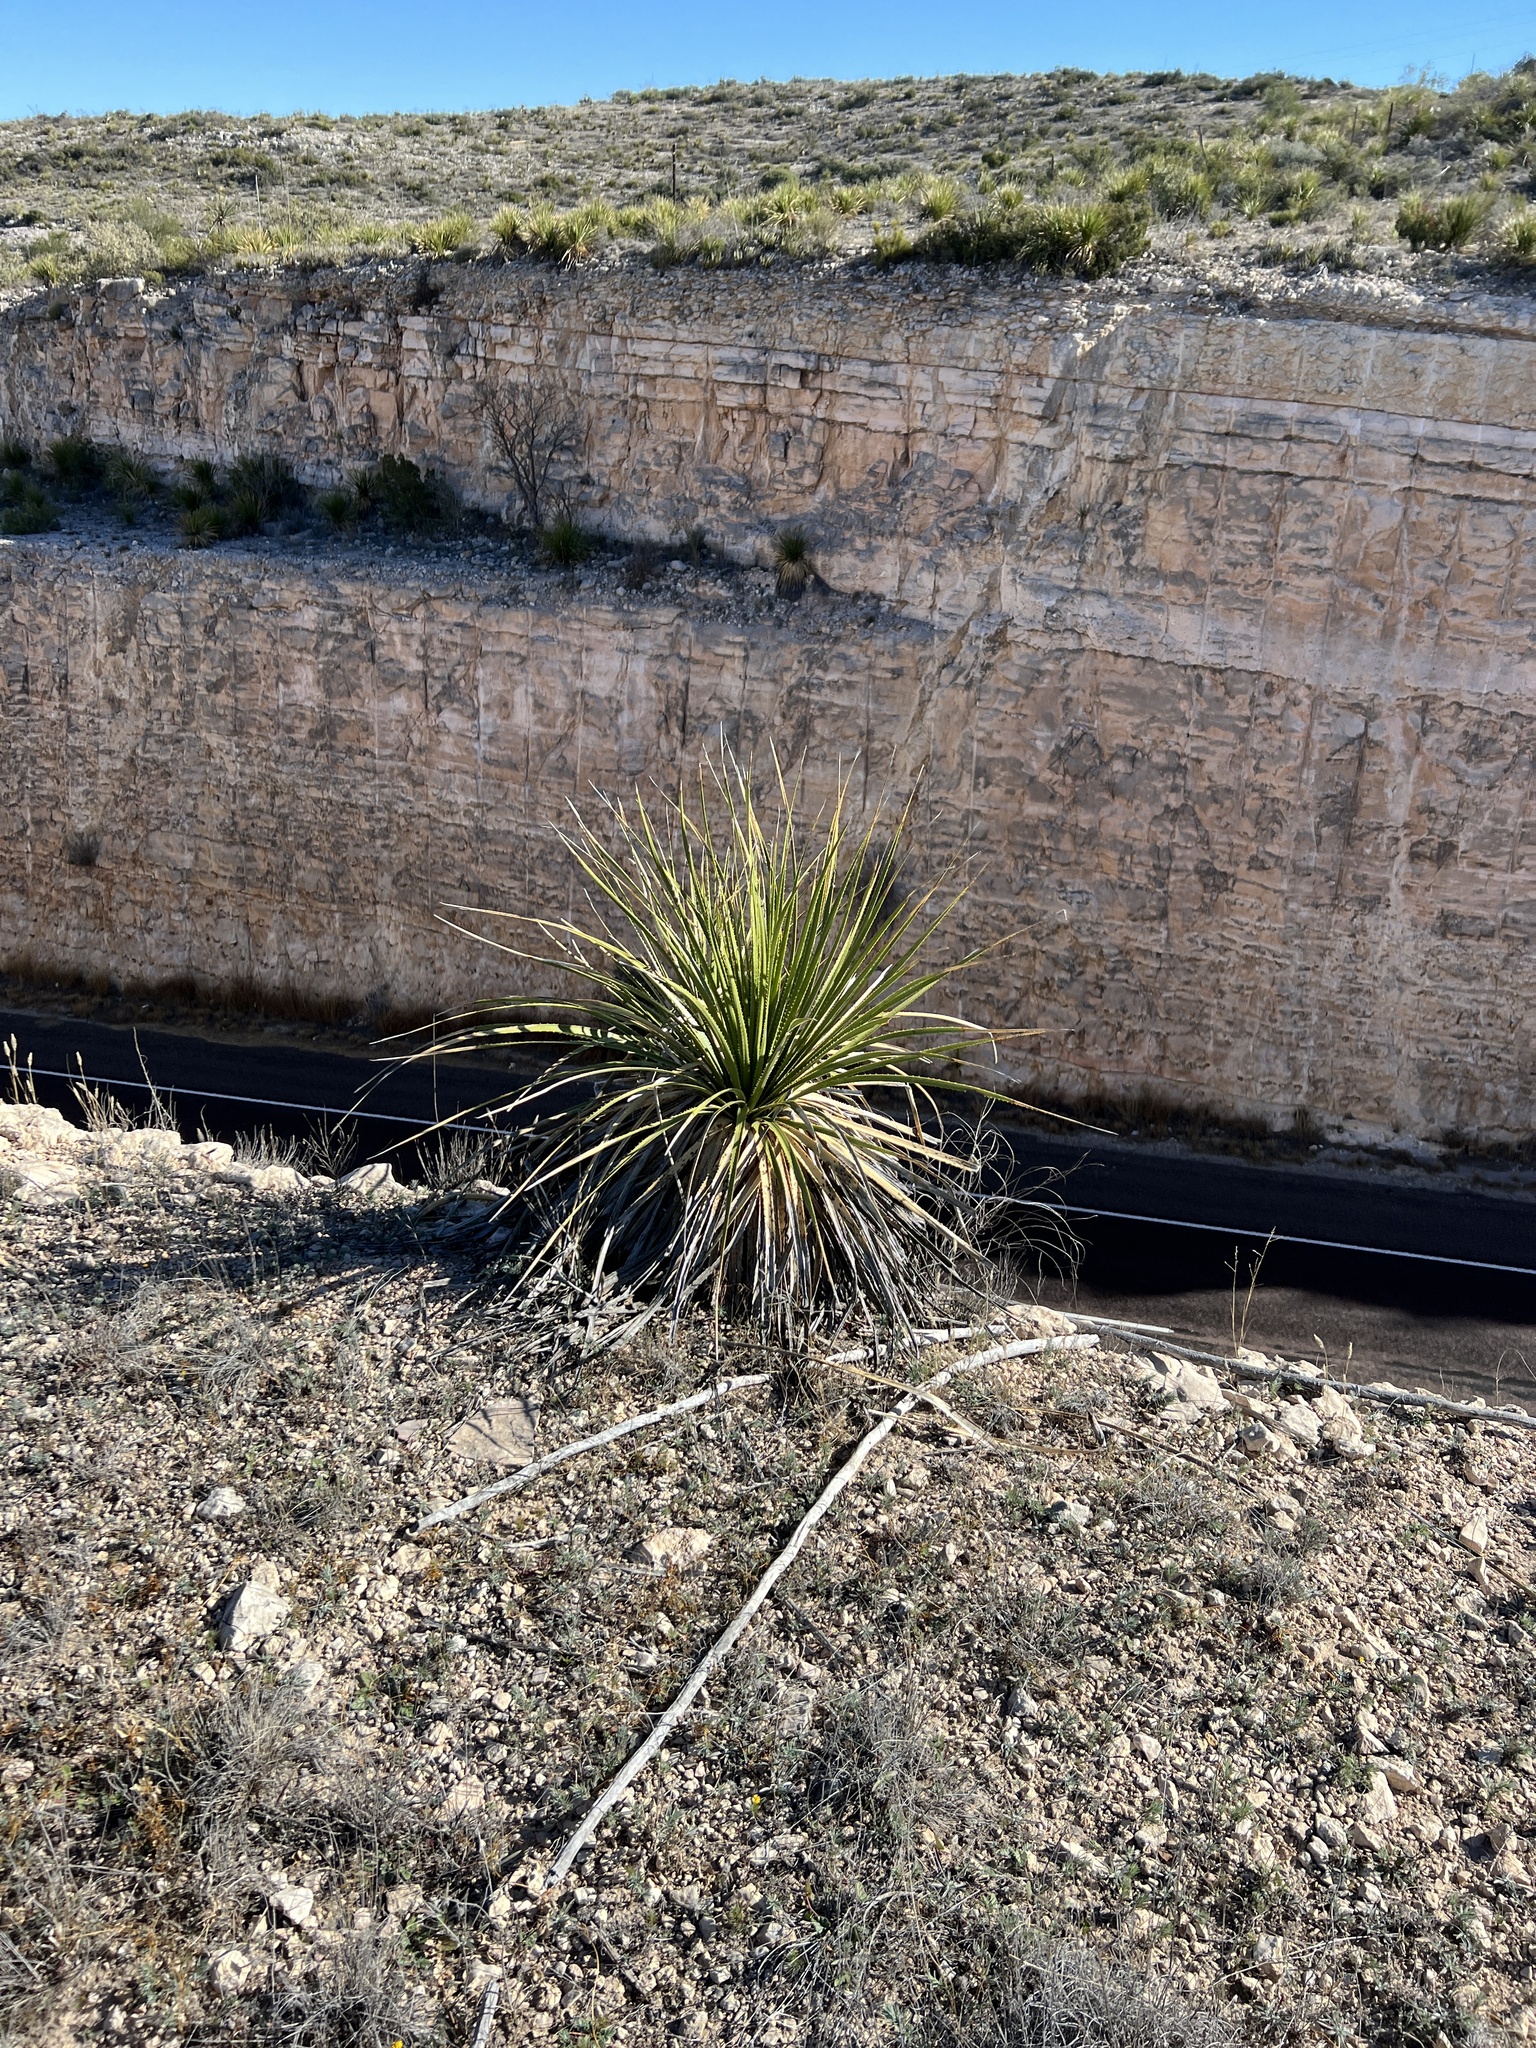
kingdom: Plantae
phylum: Tracheophyta
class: Liliopsida
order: Asparagales
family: Asparagaceae
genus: Dasylirion
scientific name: Dasylirion texanum
